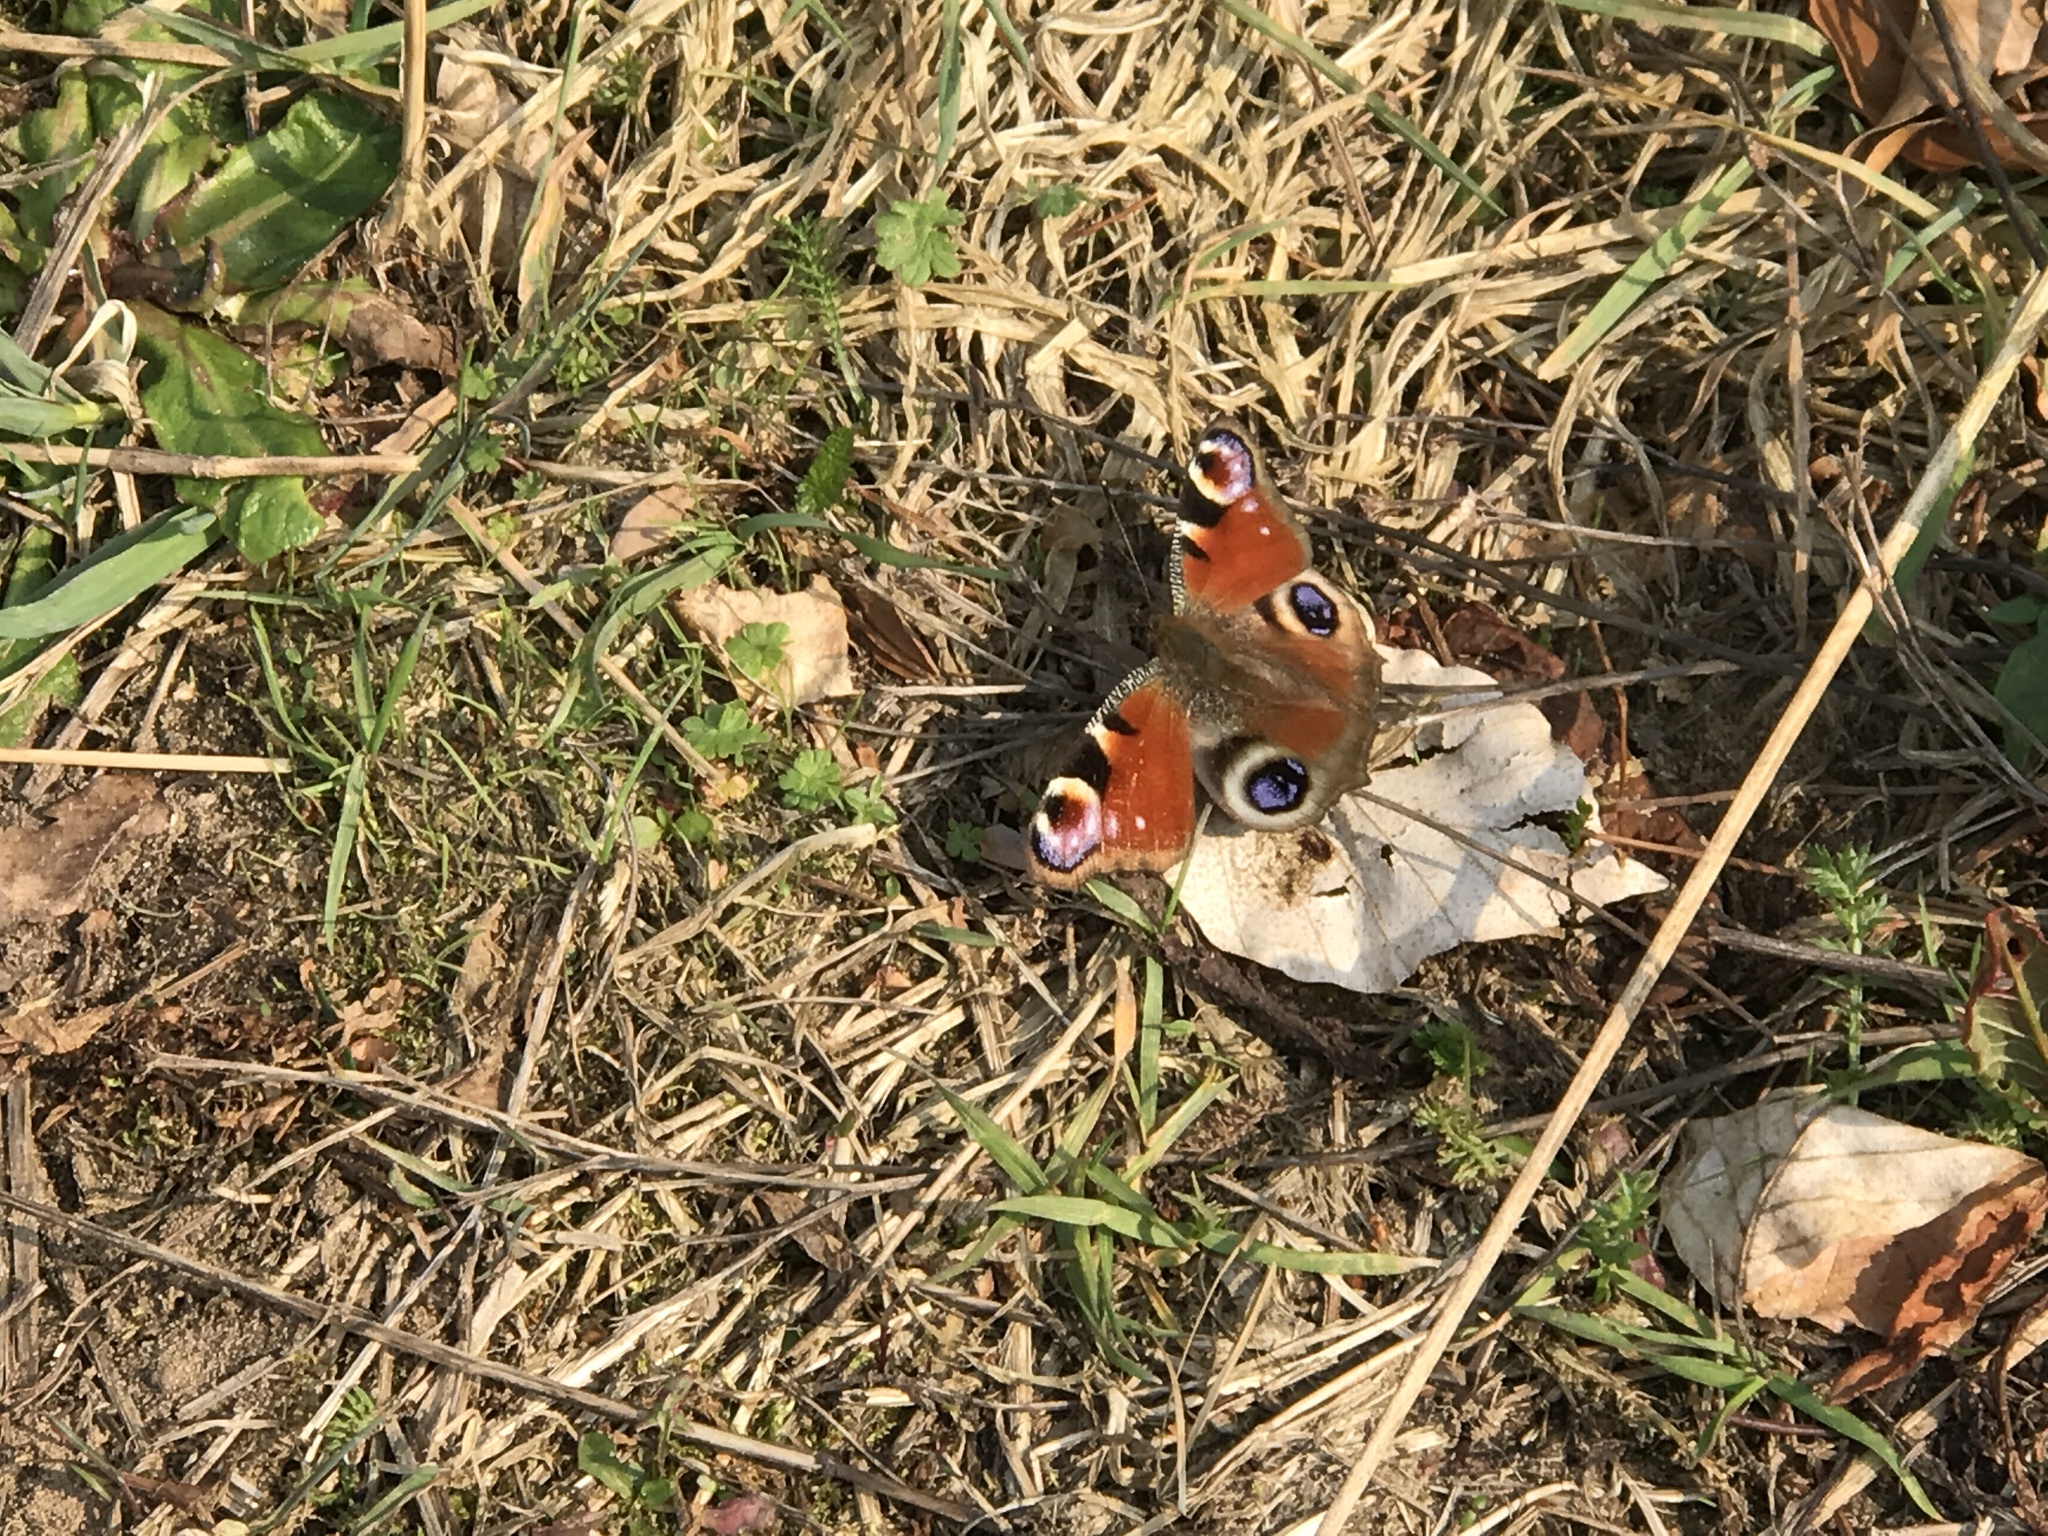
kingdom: Animalia
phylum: Arthropoda
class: Insecta
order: Lepidoptera
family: Nymphalidae
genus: Aglais
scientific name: Aglais io
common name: Peacock
